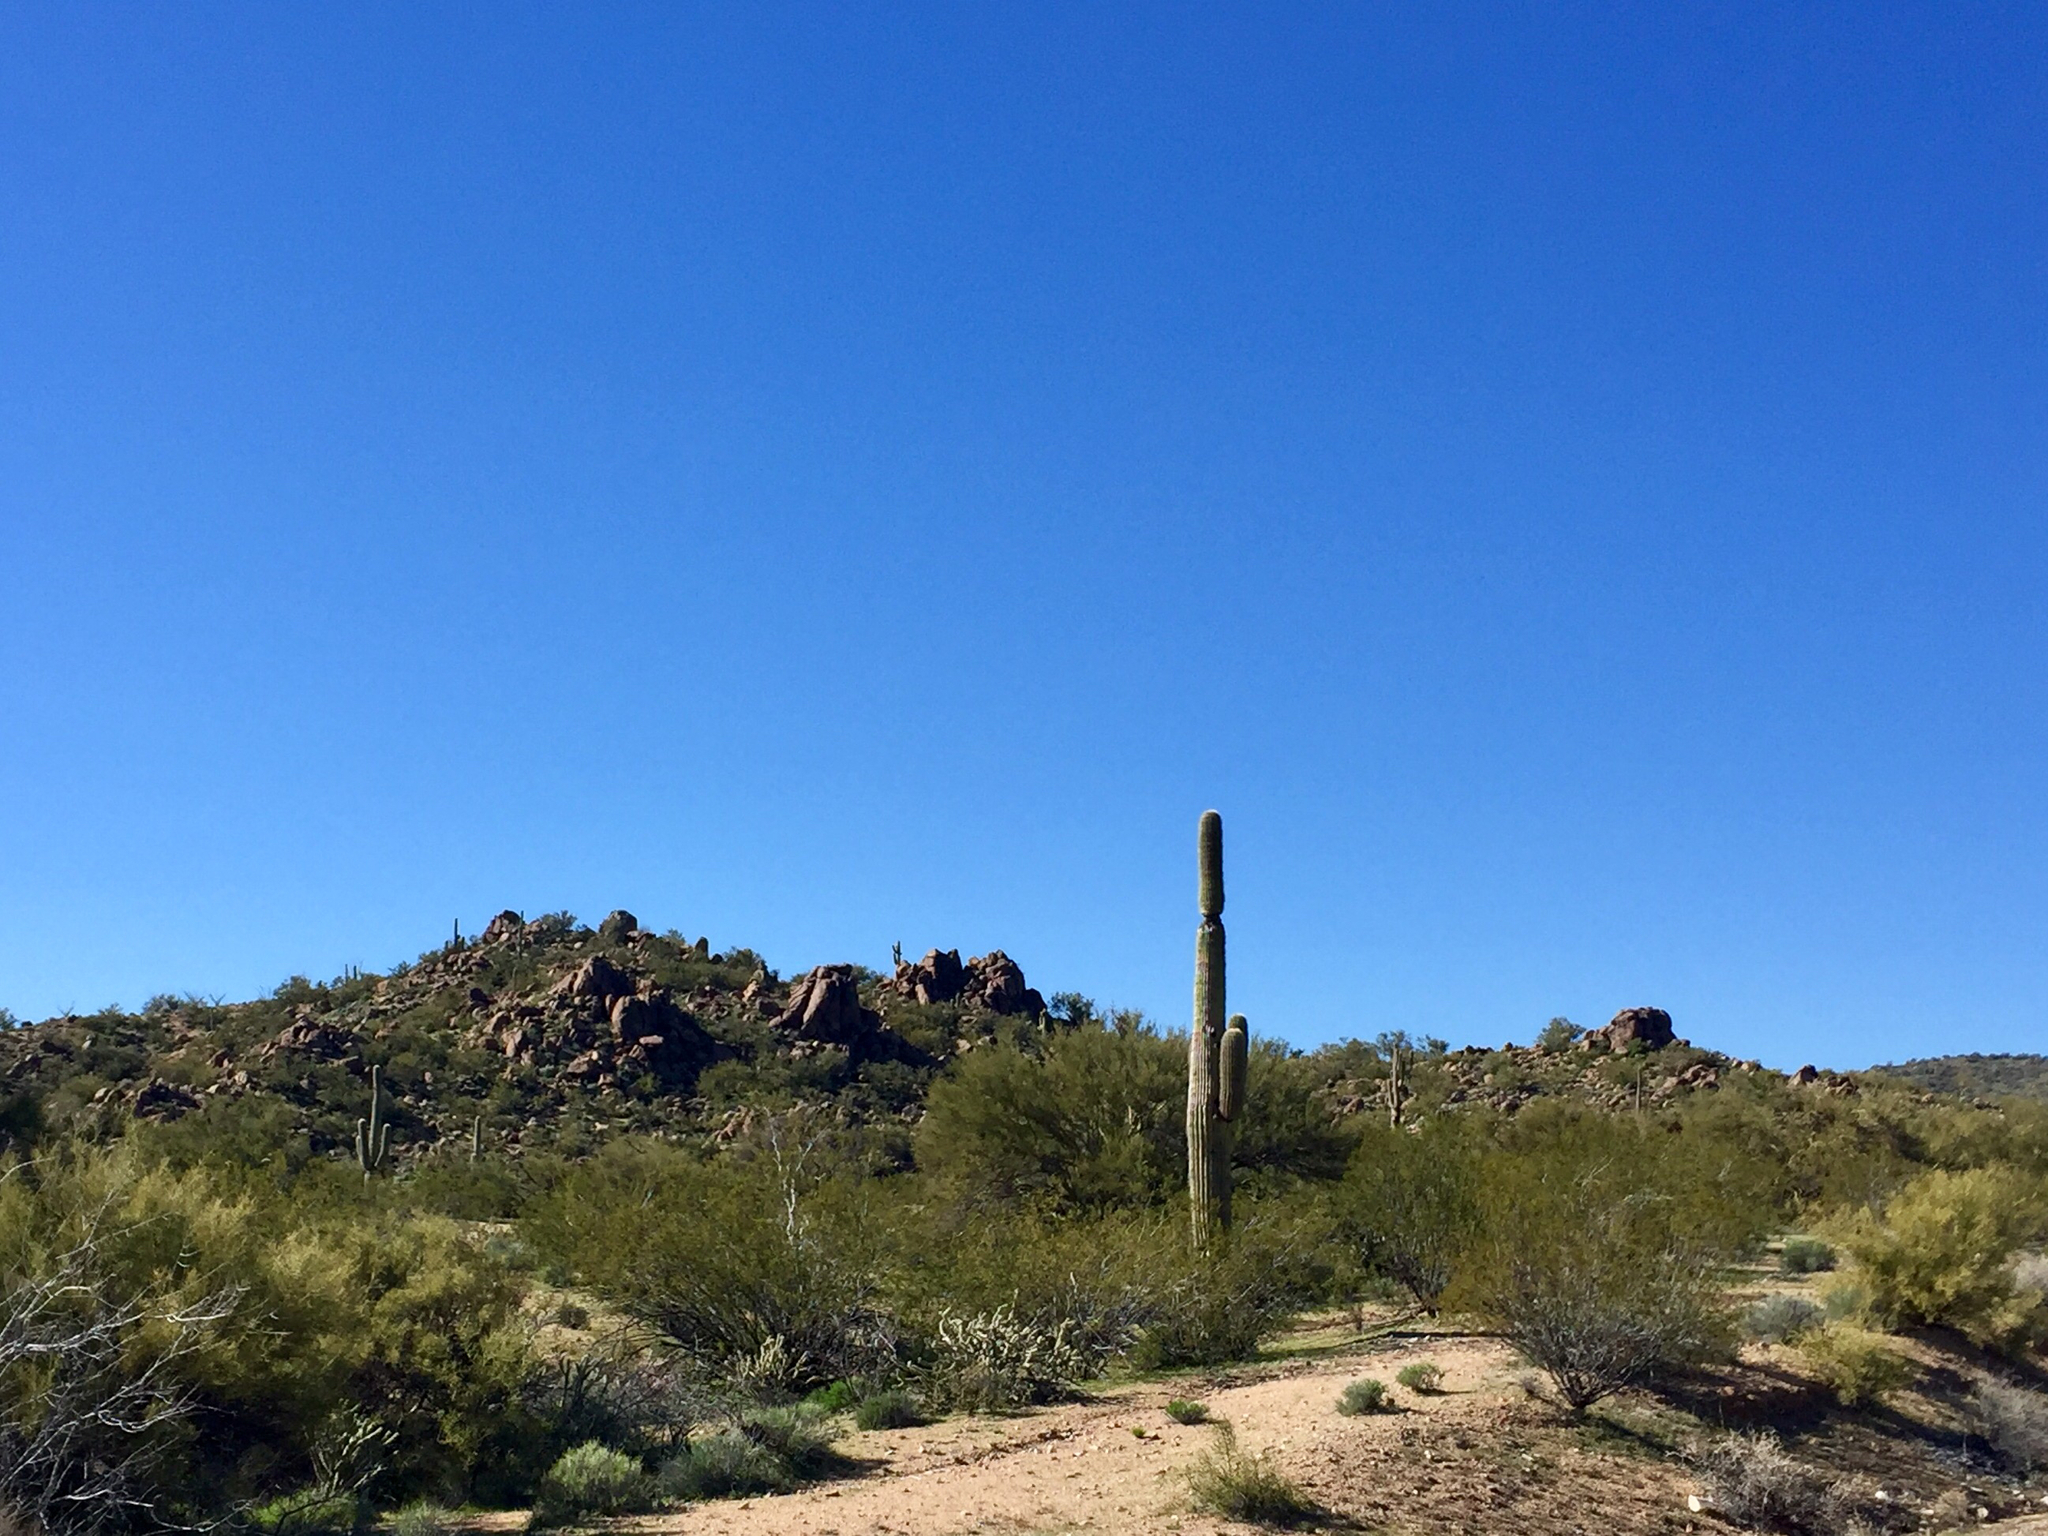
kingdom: Plantae
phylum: Tracheophyta
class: Magnoliopsida
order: Caryophyllales
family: Cactaceae
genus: Carnegiea
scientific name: Carnegiea gigantea
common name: Saguaro
